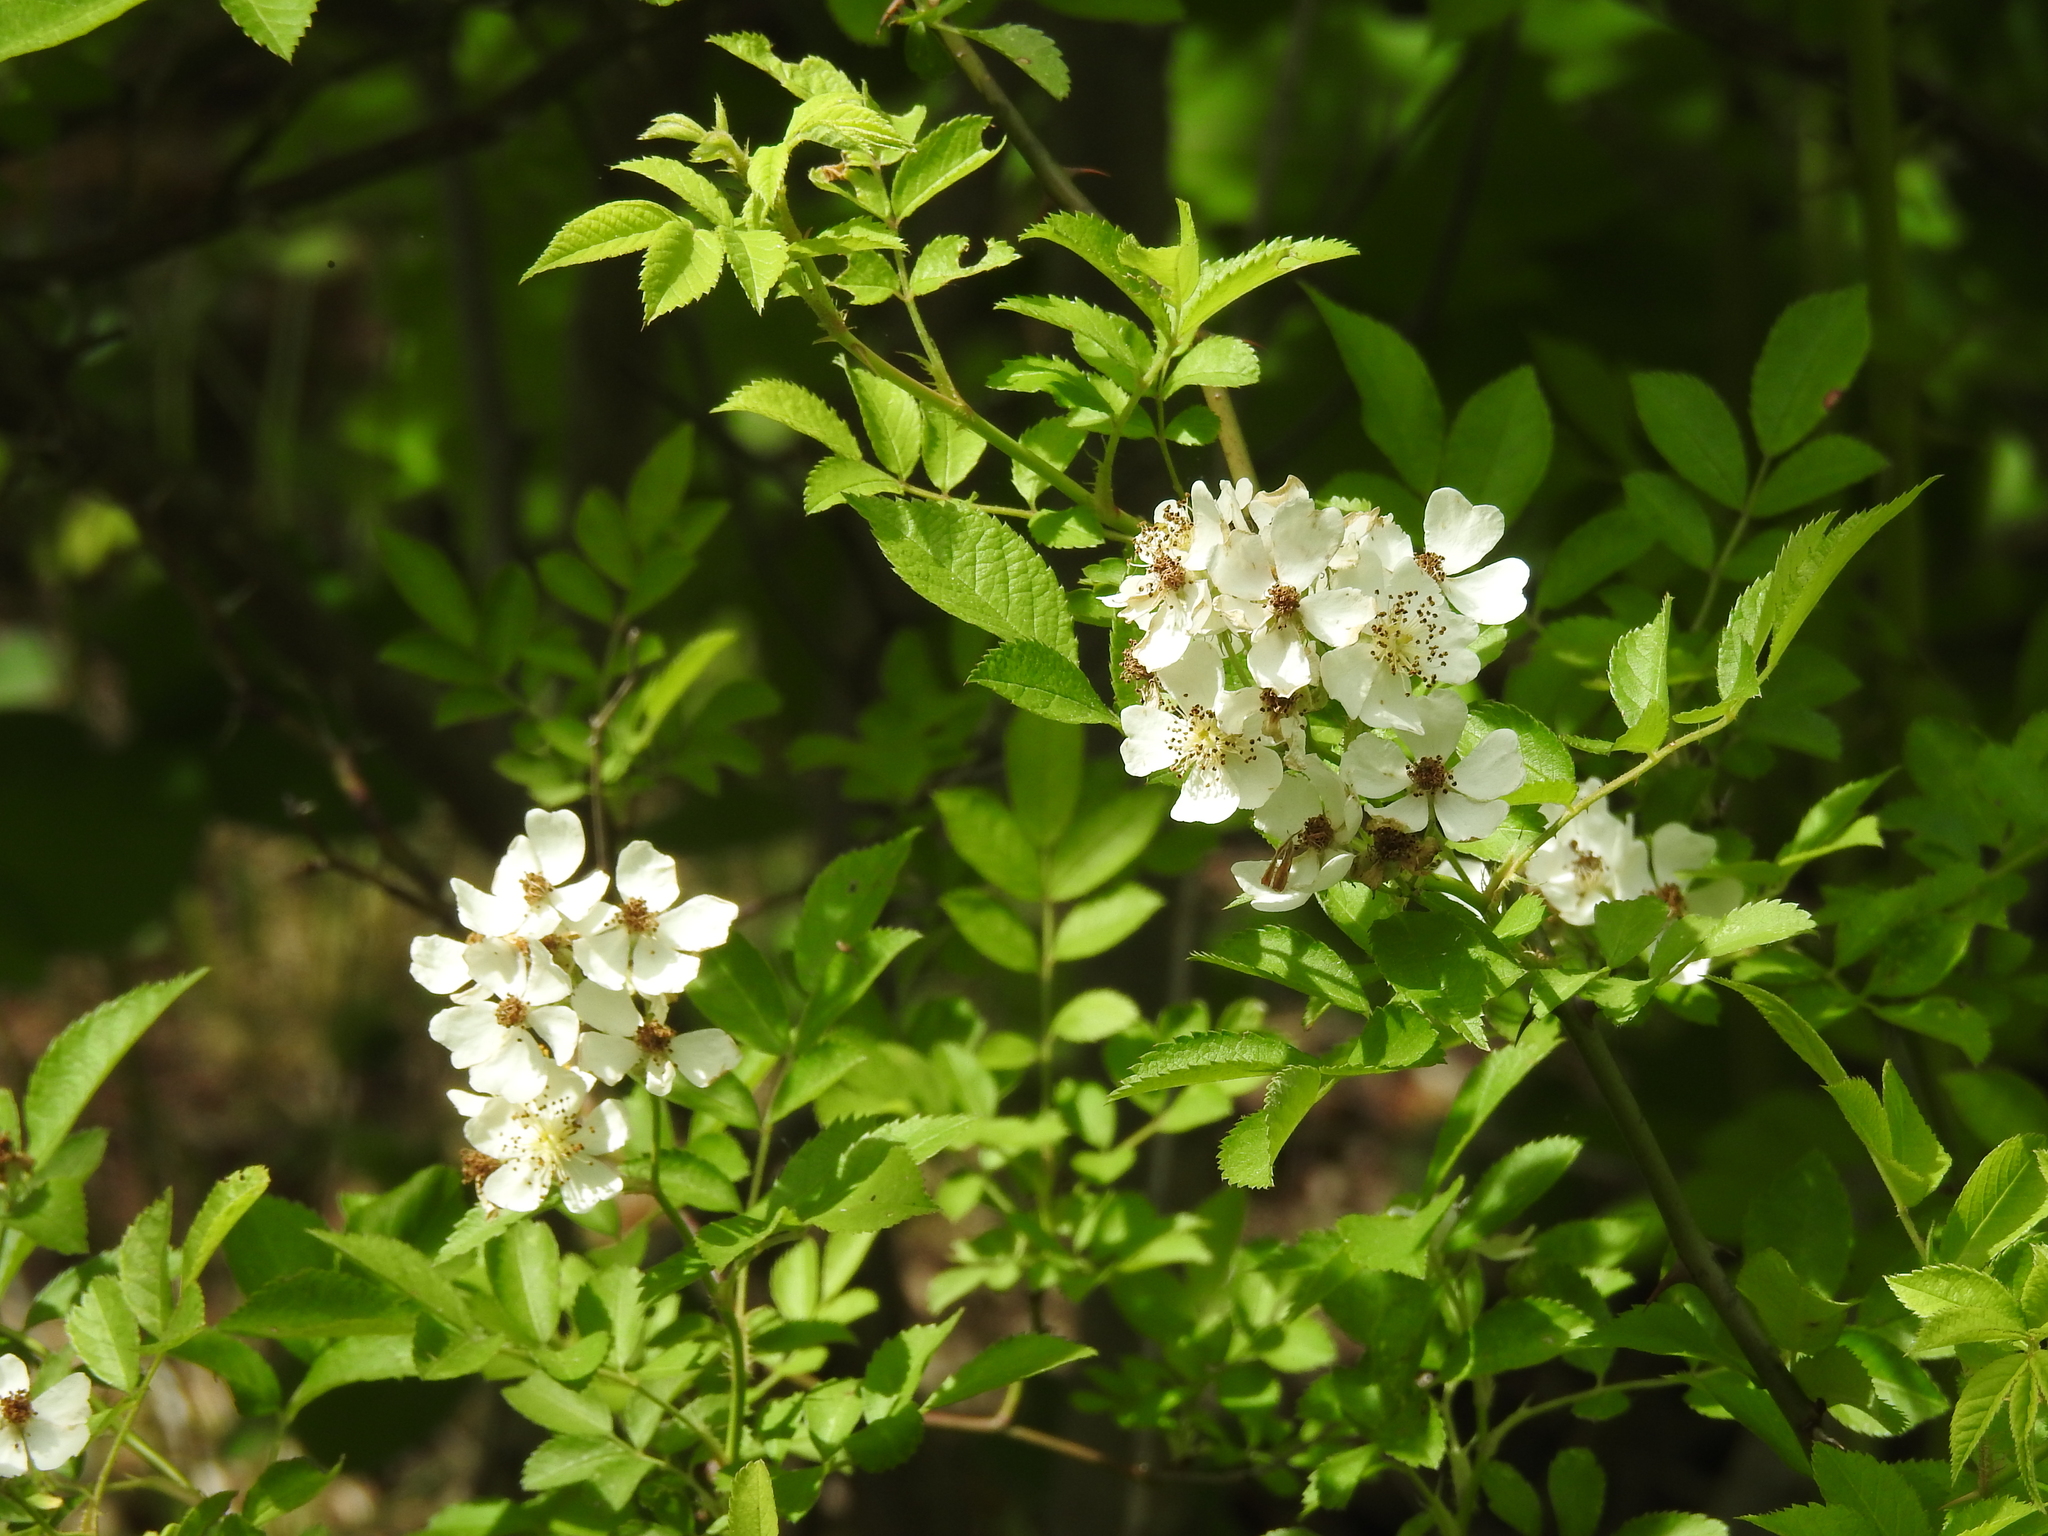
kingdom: Plantae
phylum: Tracheophyta
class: Magnoliopsida
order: Rosales
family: Rosaceae
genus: Rosa
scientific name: Rosa multiflora
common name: Multiflora rose
